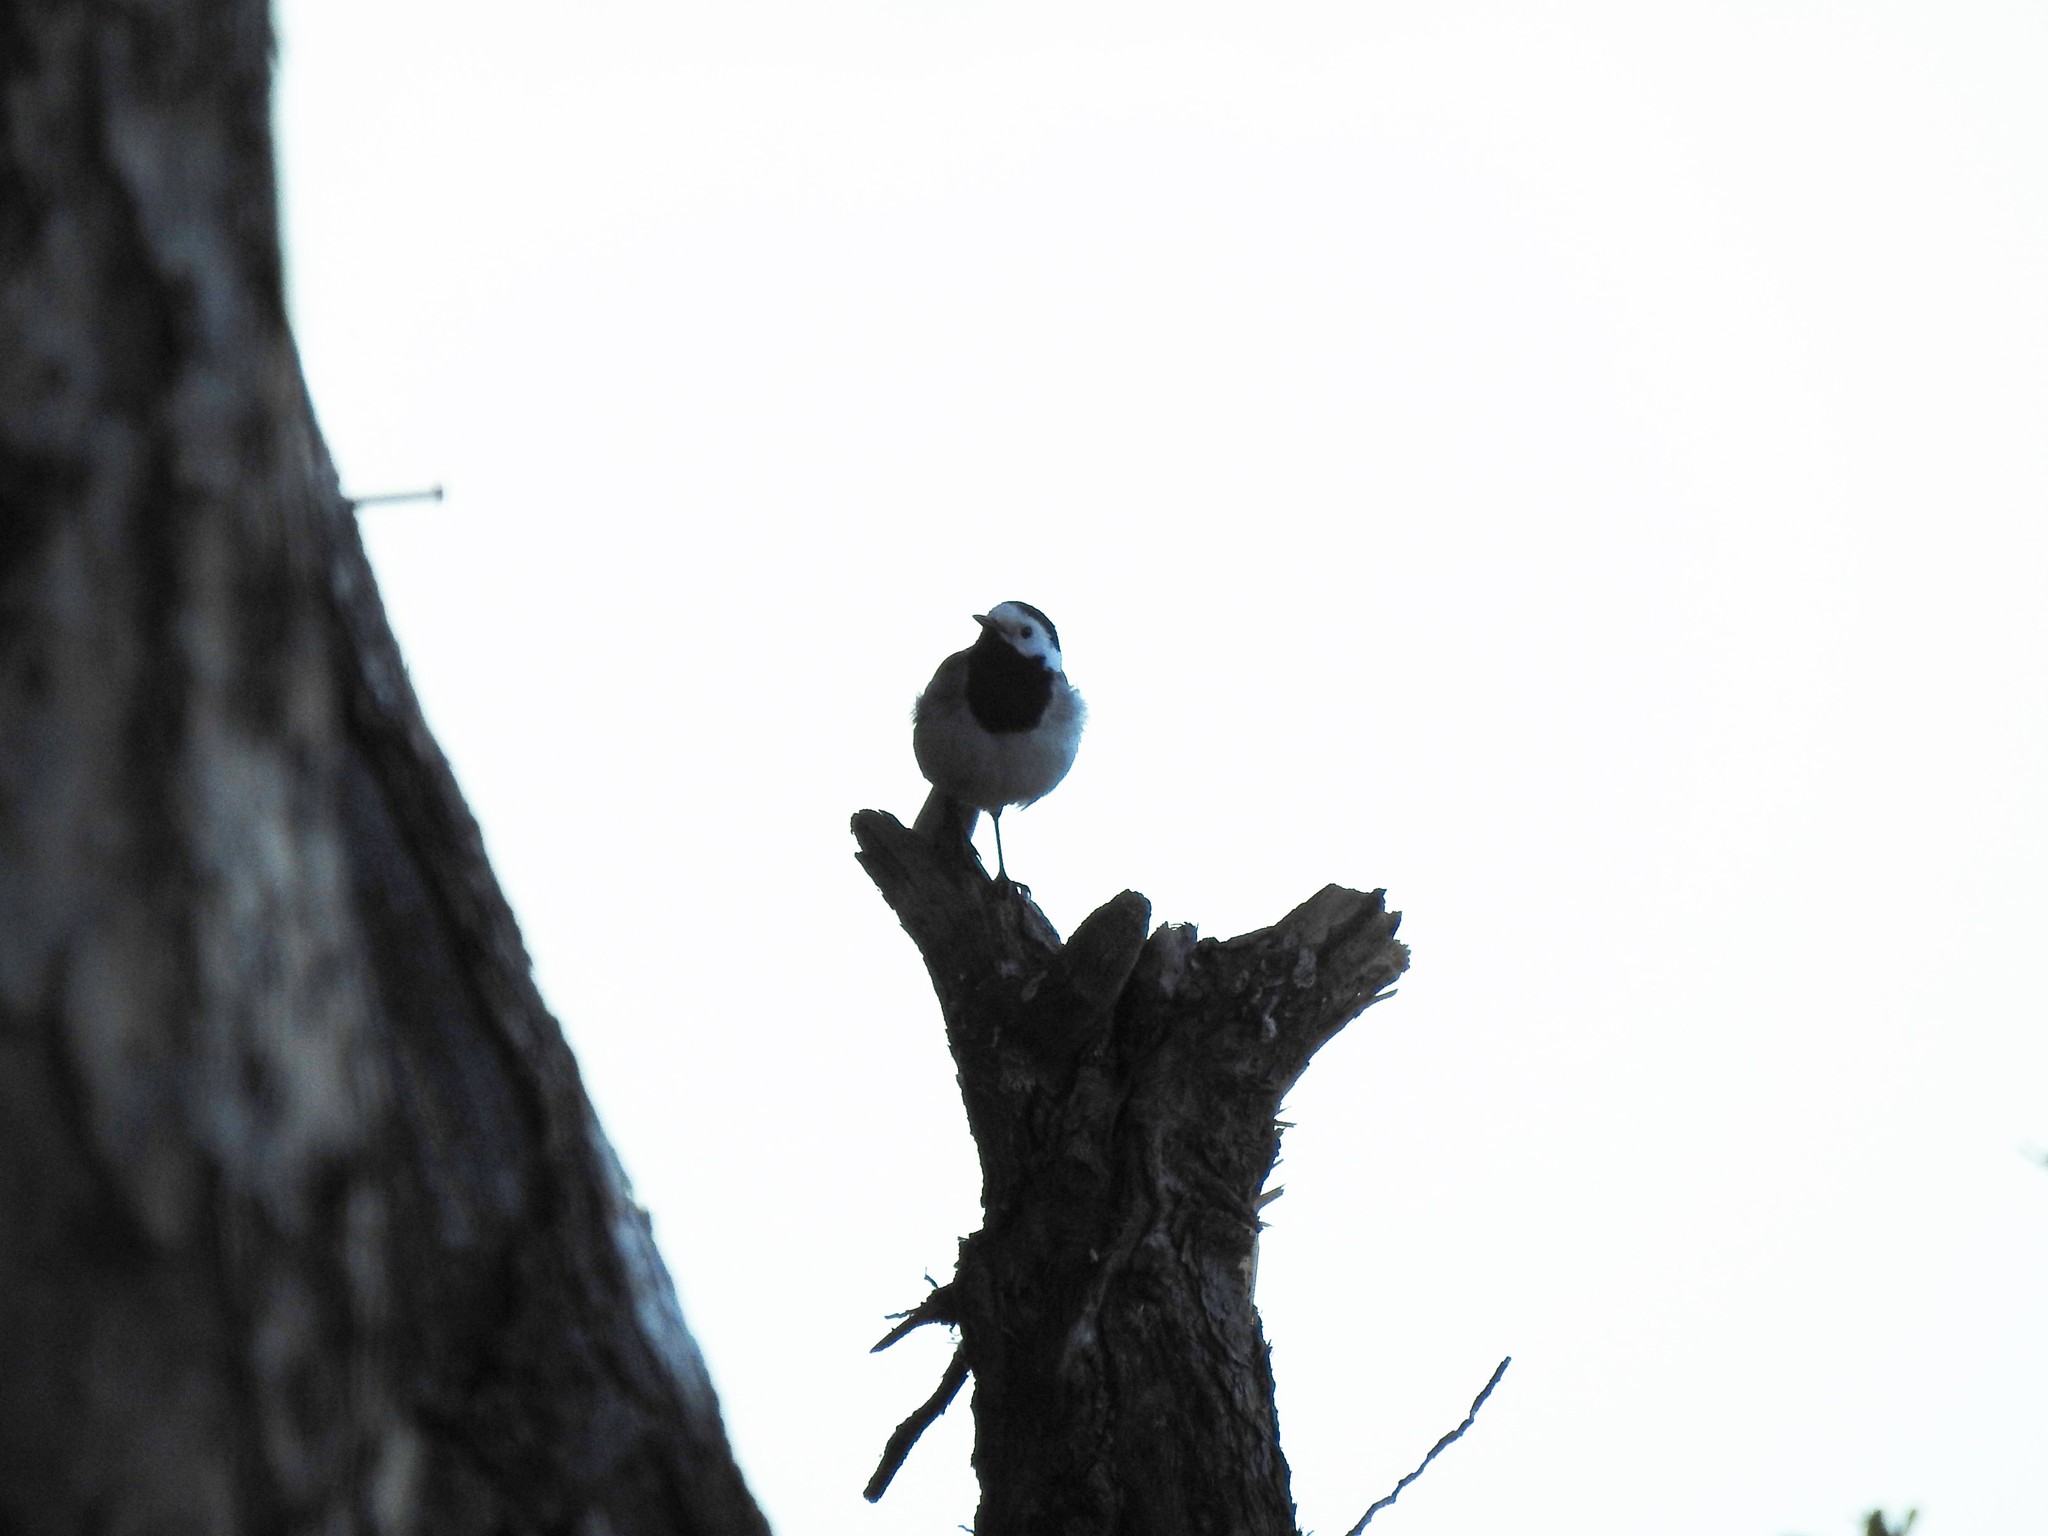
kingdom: Animalia
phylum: Chordata
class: Aves
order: Passeriformes
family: Motacillidae
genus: Motacilla
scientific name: Motacilla alba
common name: White wagtail
